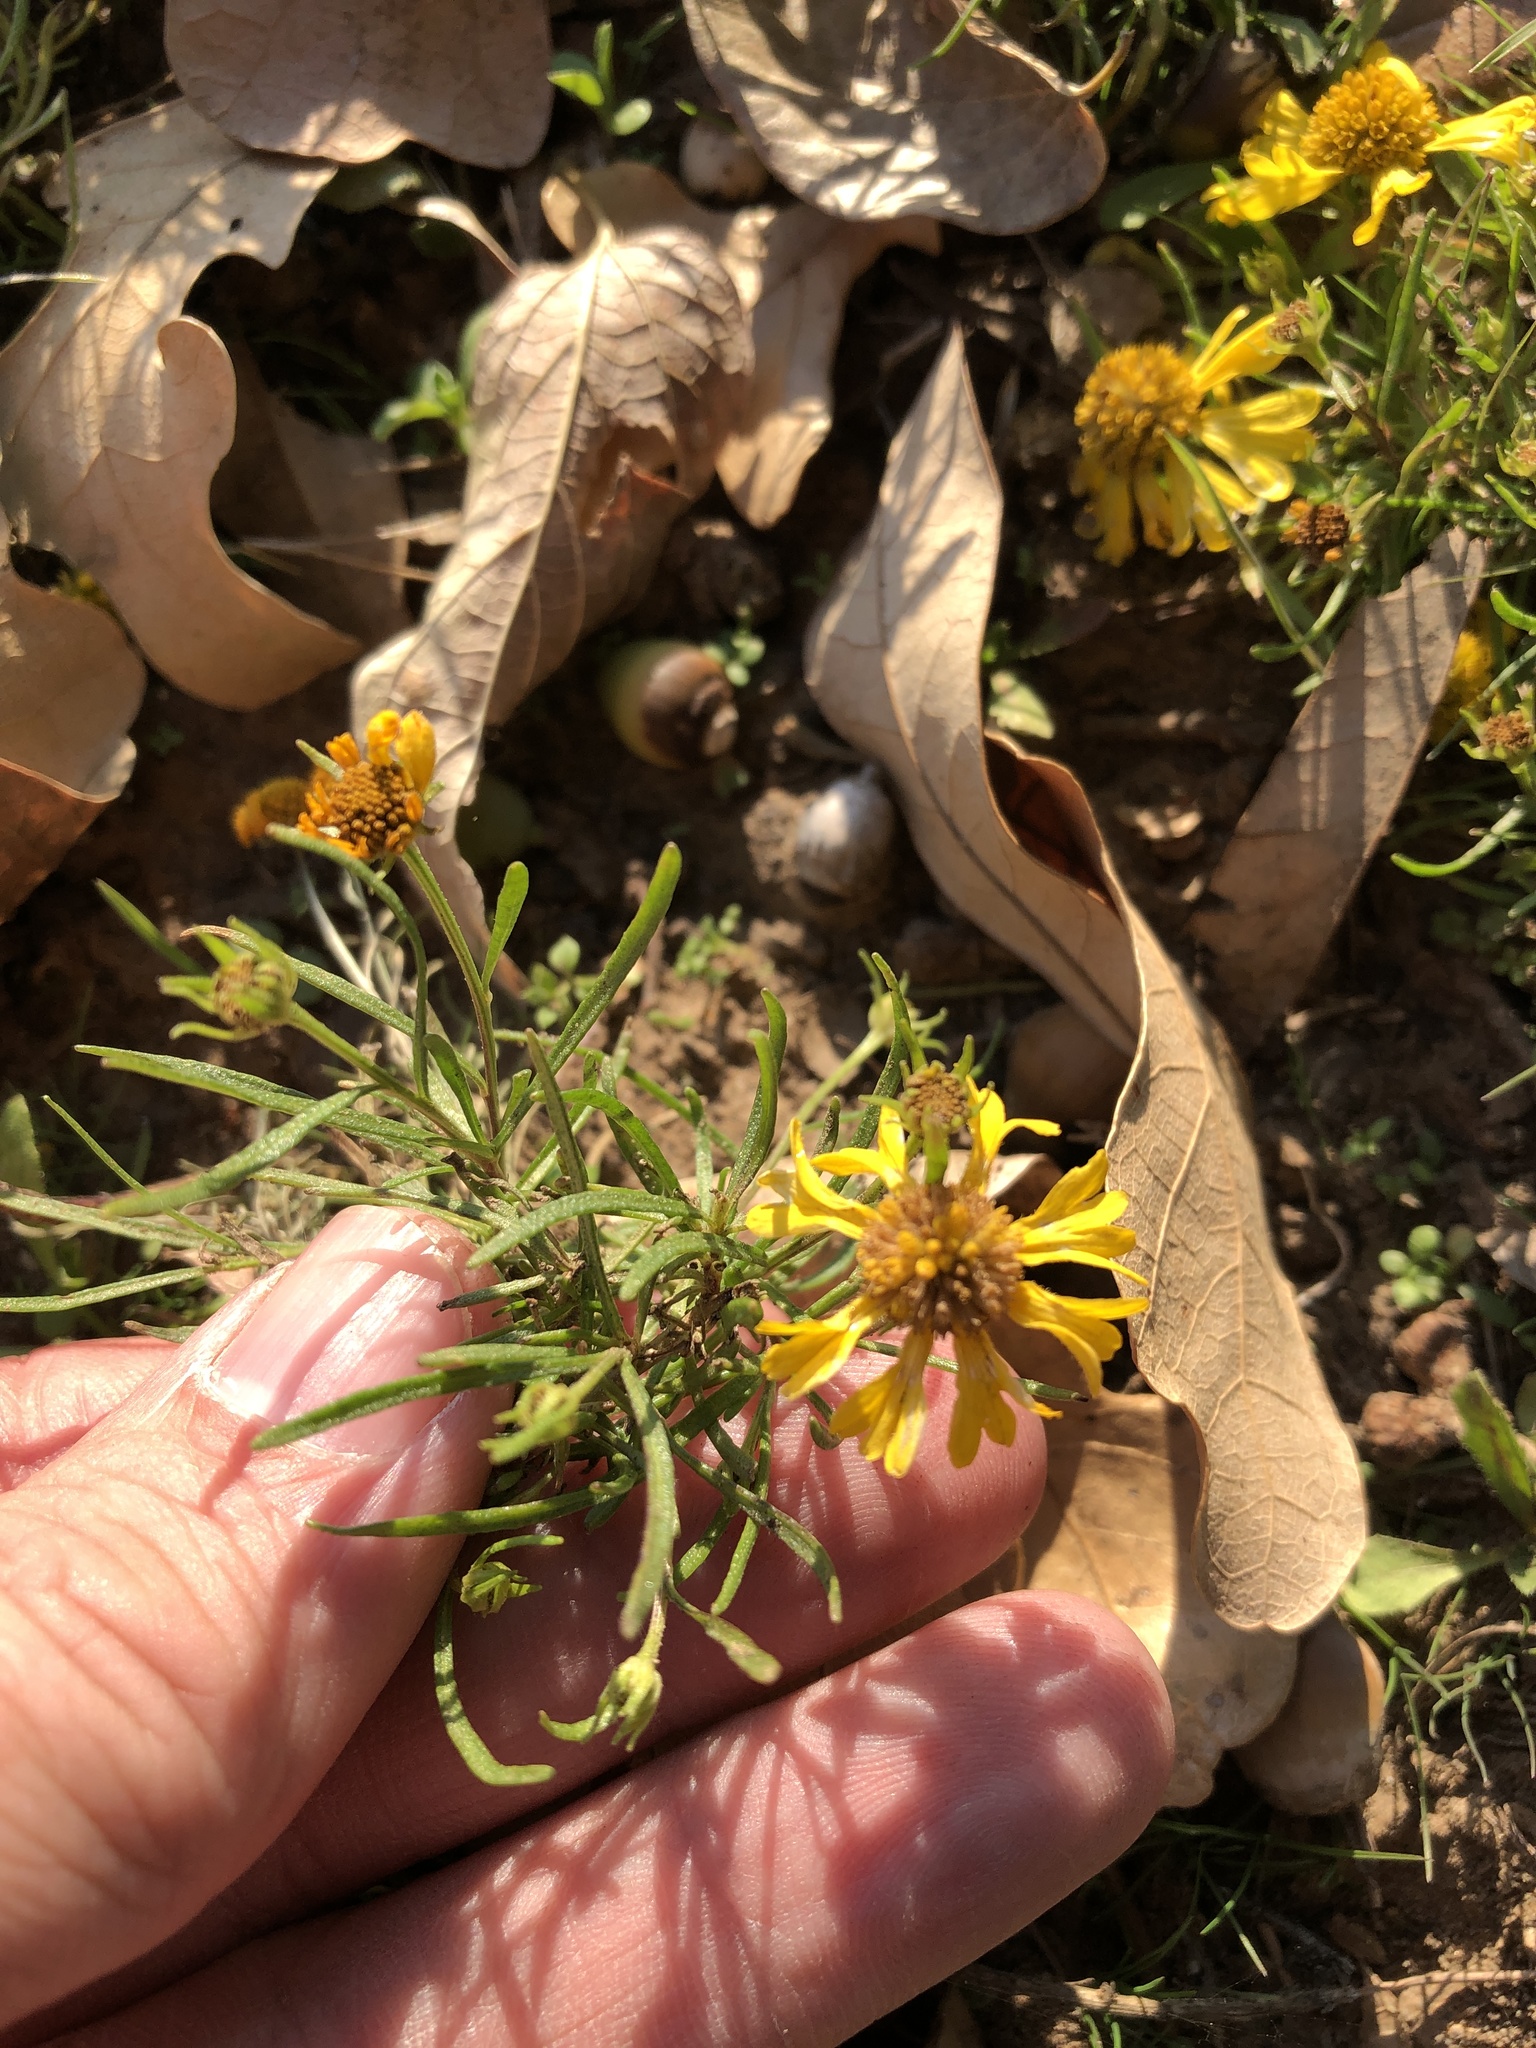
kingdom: Plantae
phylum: Tracheophyta
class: Magnoliopsida
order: Asterales
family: Asteraceae
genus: Helenium
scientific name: Helenium amarum
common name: Bitter sneezeweed
